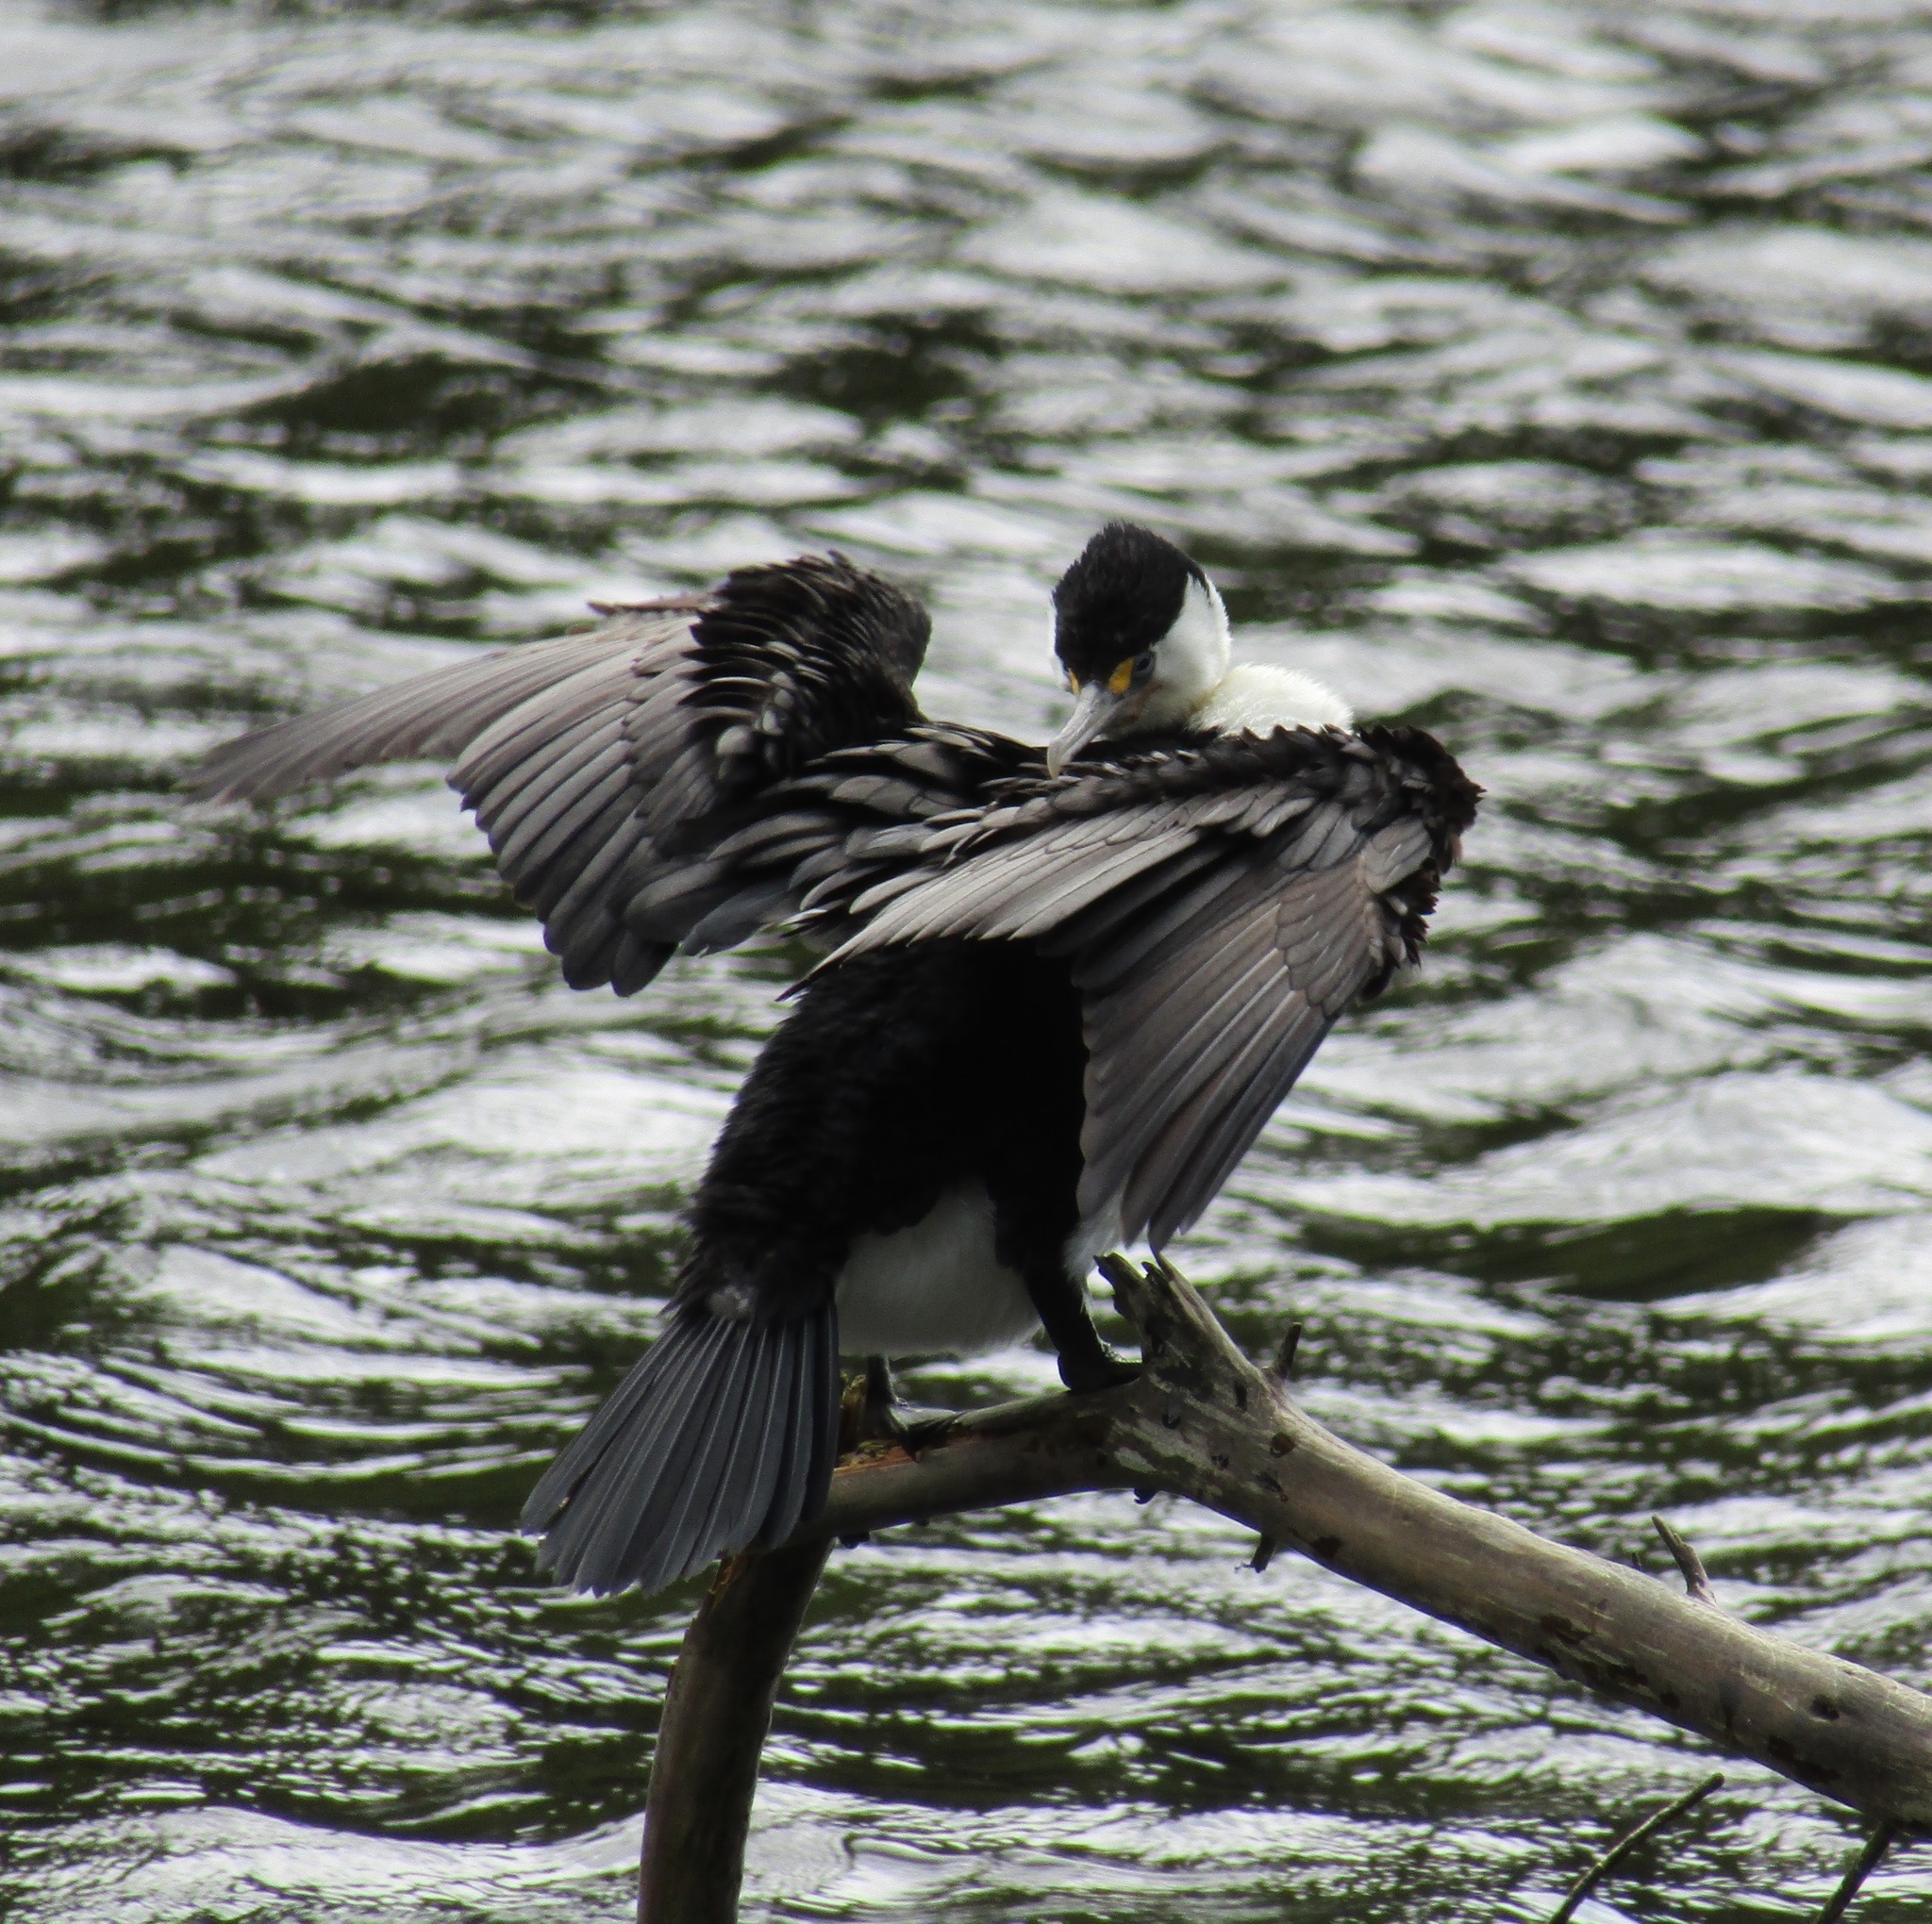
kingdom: Animalia
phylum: Chordata
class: Aves
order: Suliformes
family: Phalacrocoracidae
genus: Phalacrocorax
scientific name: Phalacrocorax varius
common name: Pied cormorant
